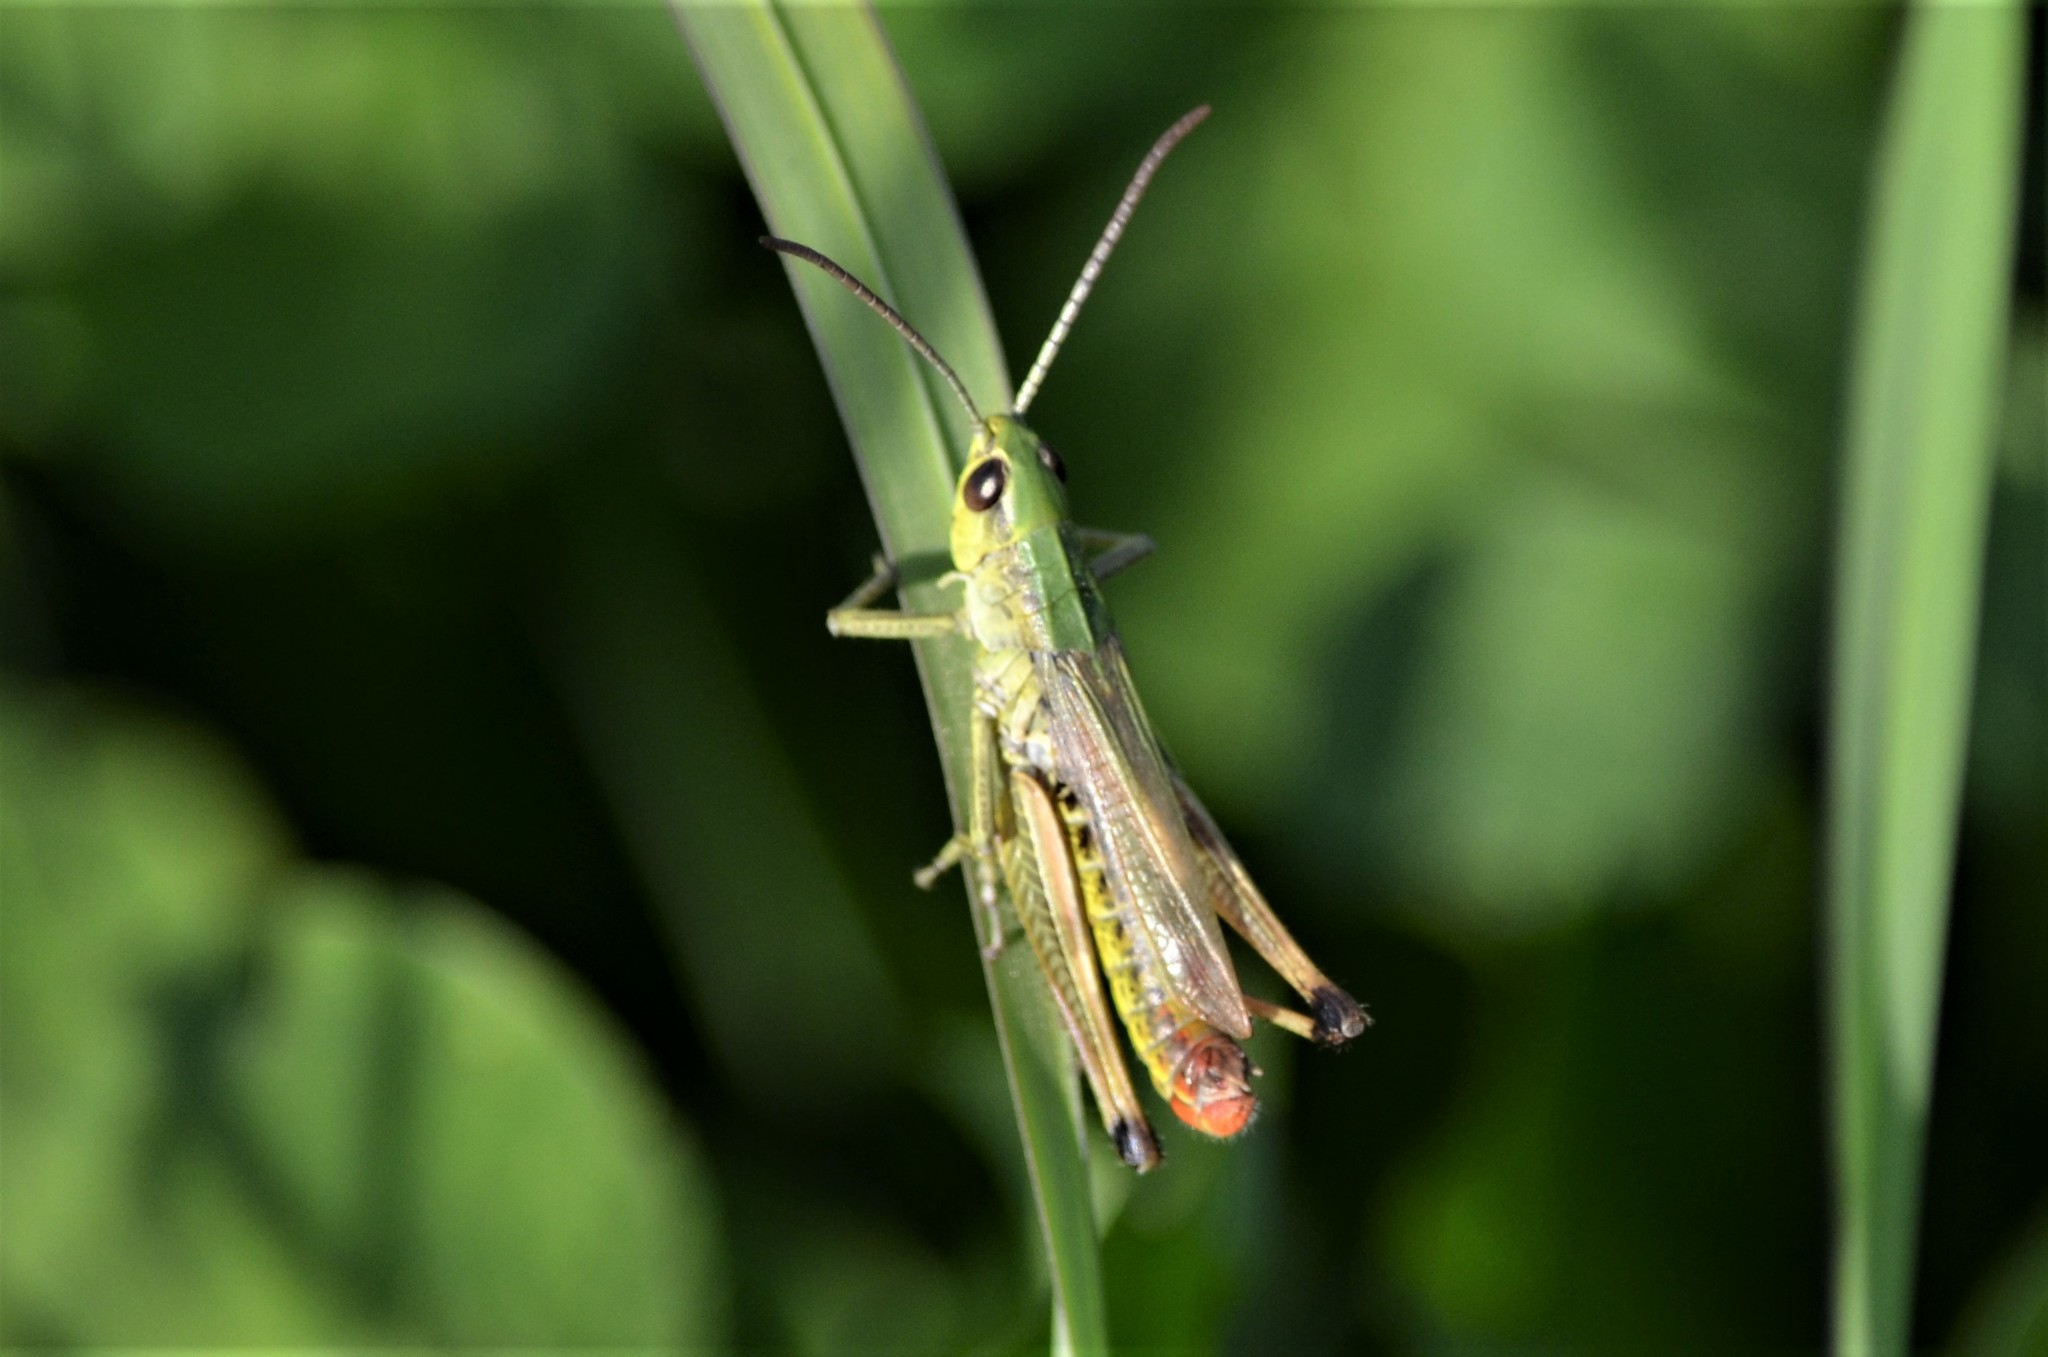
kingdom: Animalia
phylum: Arthropoda
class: Insecta
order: Orthoptera
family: Acrididae
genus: Pseudochorthippus
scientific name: Pseudochorthippus parallelus
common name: Meadow grasshopper
